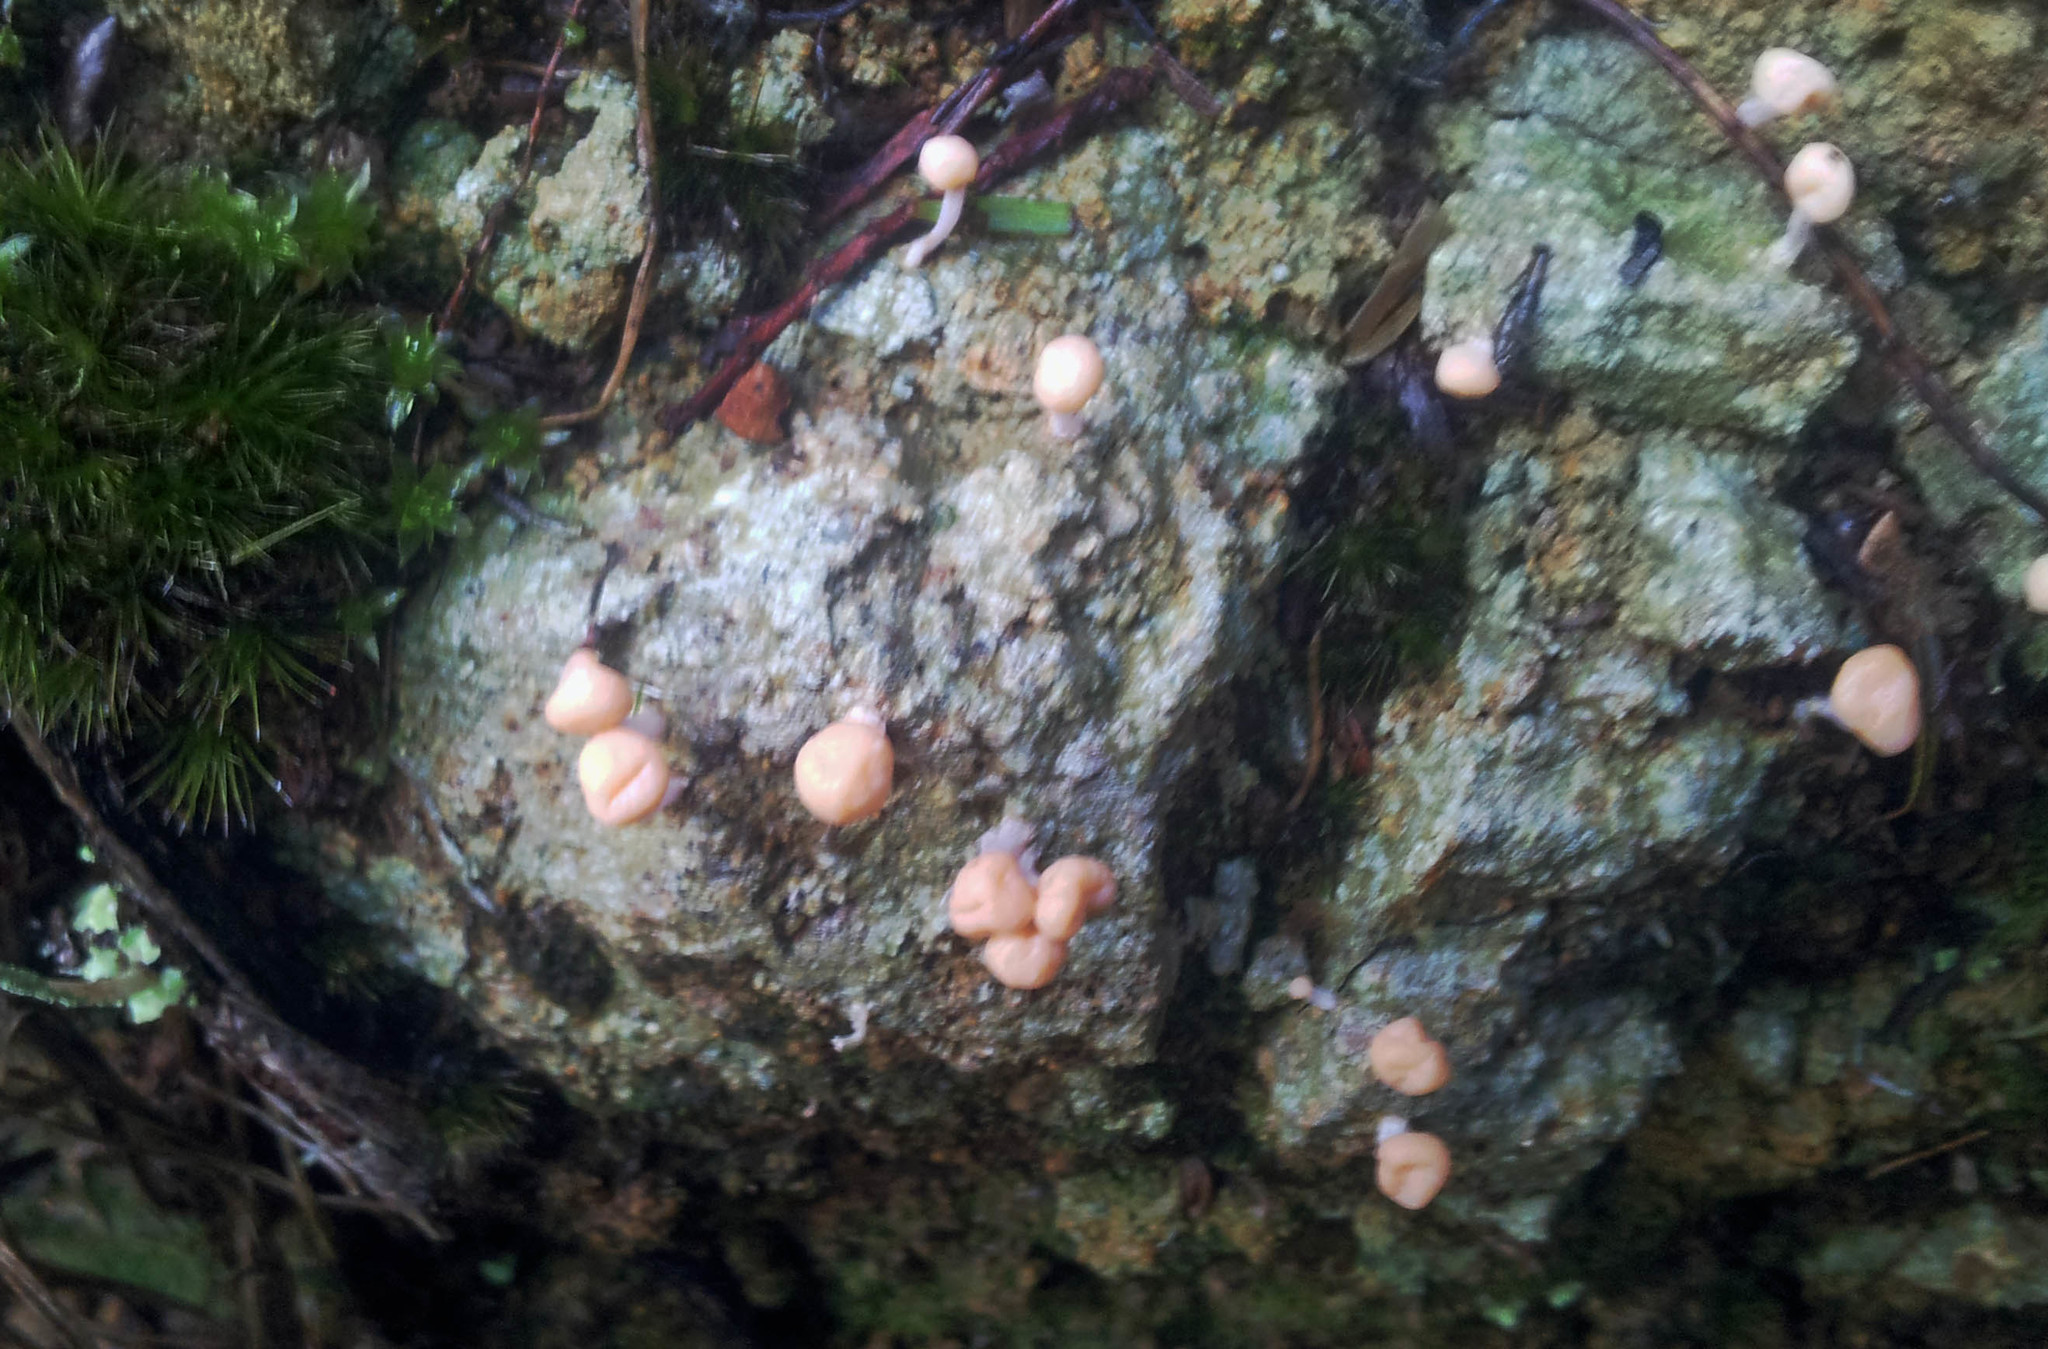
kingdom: Fungi
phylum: Ascomycota
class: Lecanoromycetes
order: Pertusariales
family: Icmadophilaceae
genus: Dibaeis
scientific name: Dibaeis arcuata
